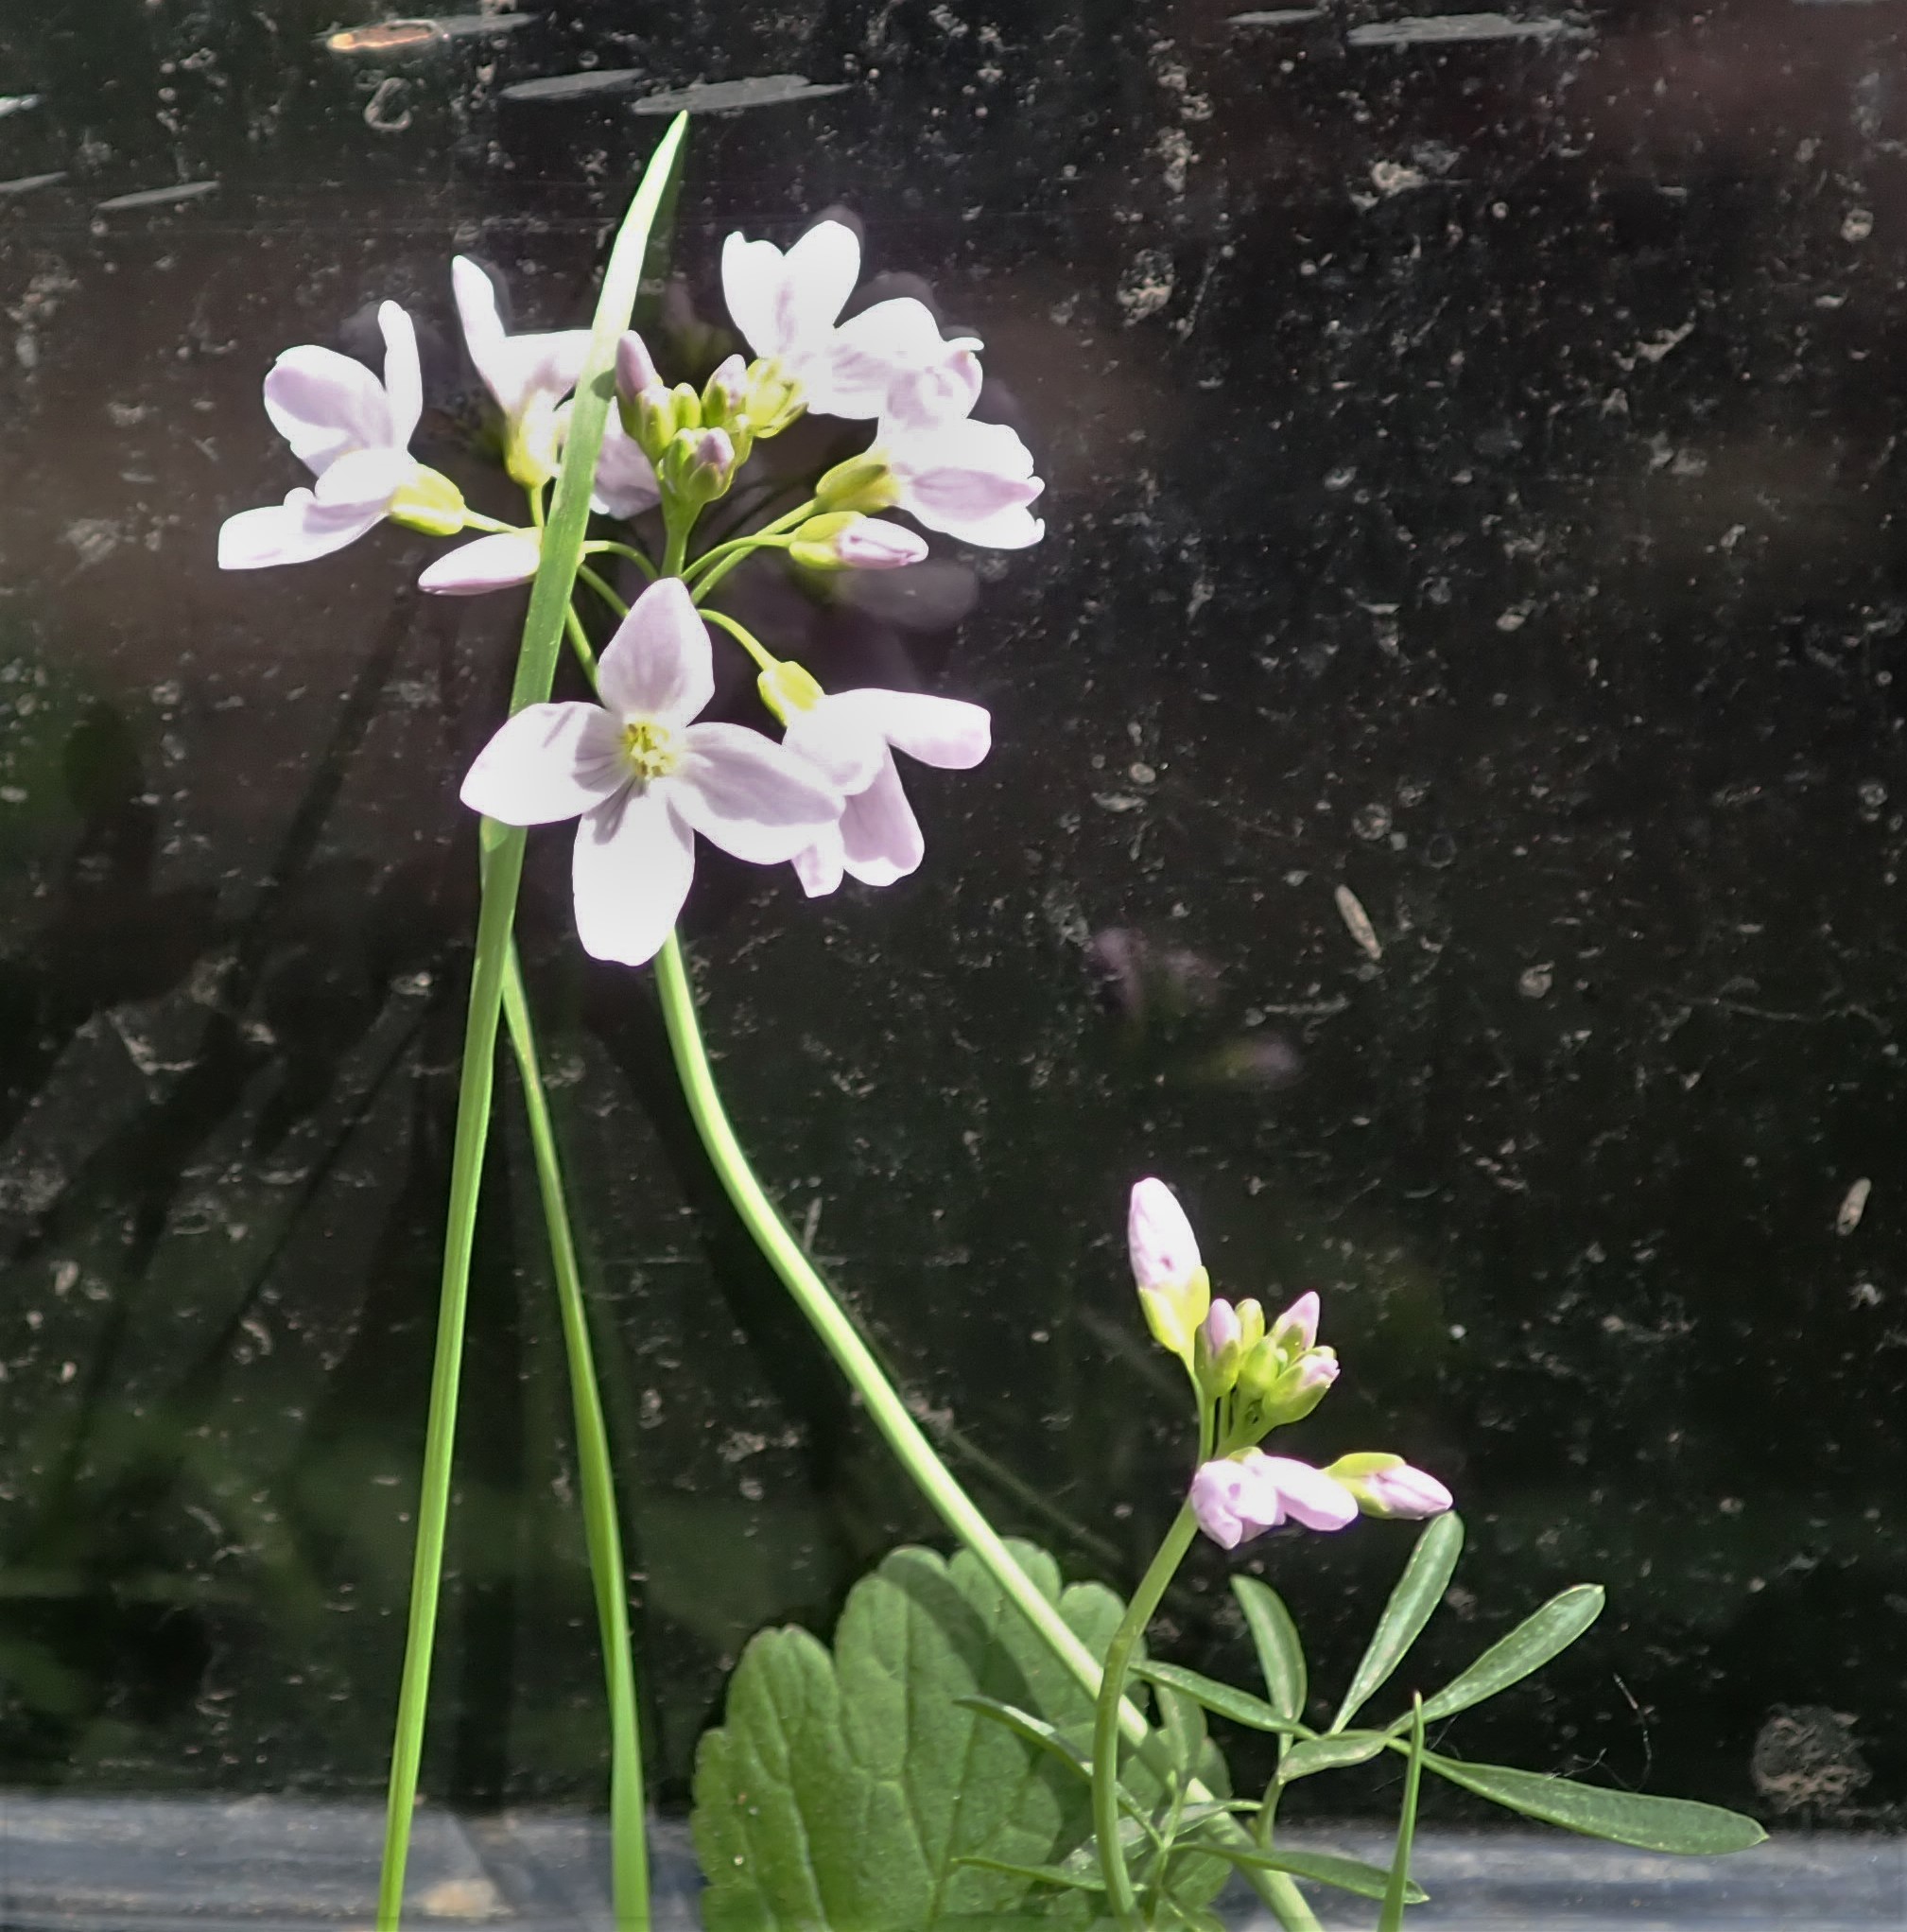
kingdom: Plantae
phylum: Tracheophyta
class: Magnoliopsida
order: Brassicales
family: Brassicaceae
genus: Cardamine
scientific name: Cardamine pratensis
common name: Cuckoo flower
